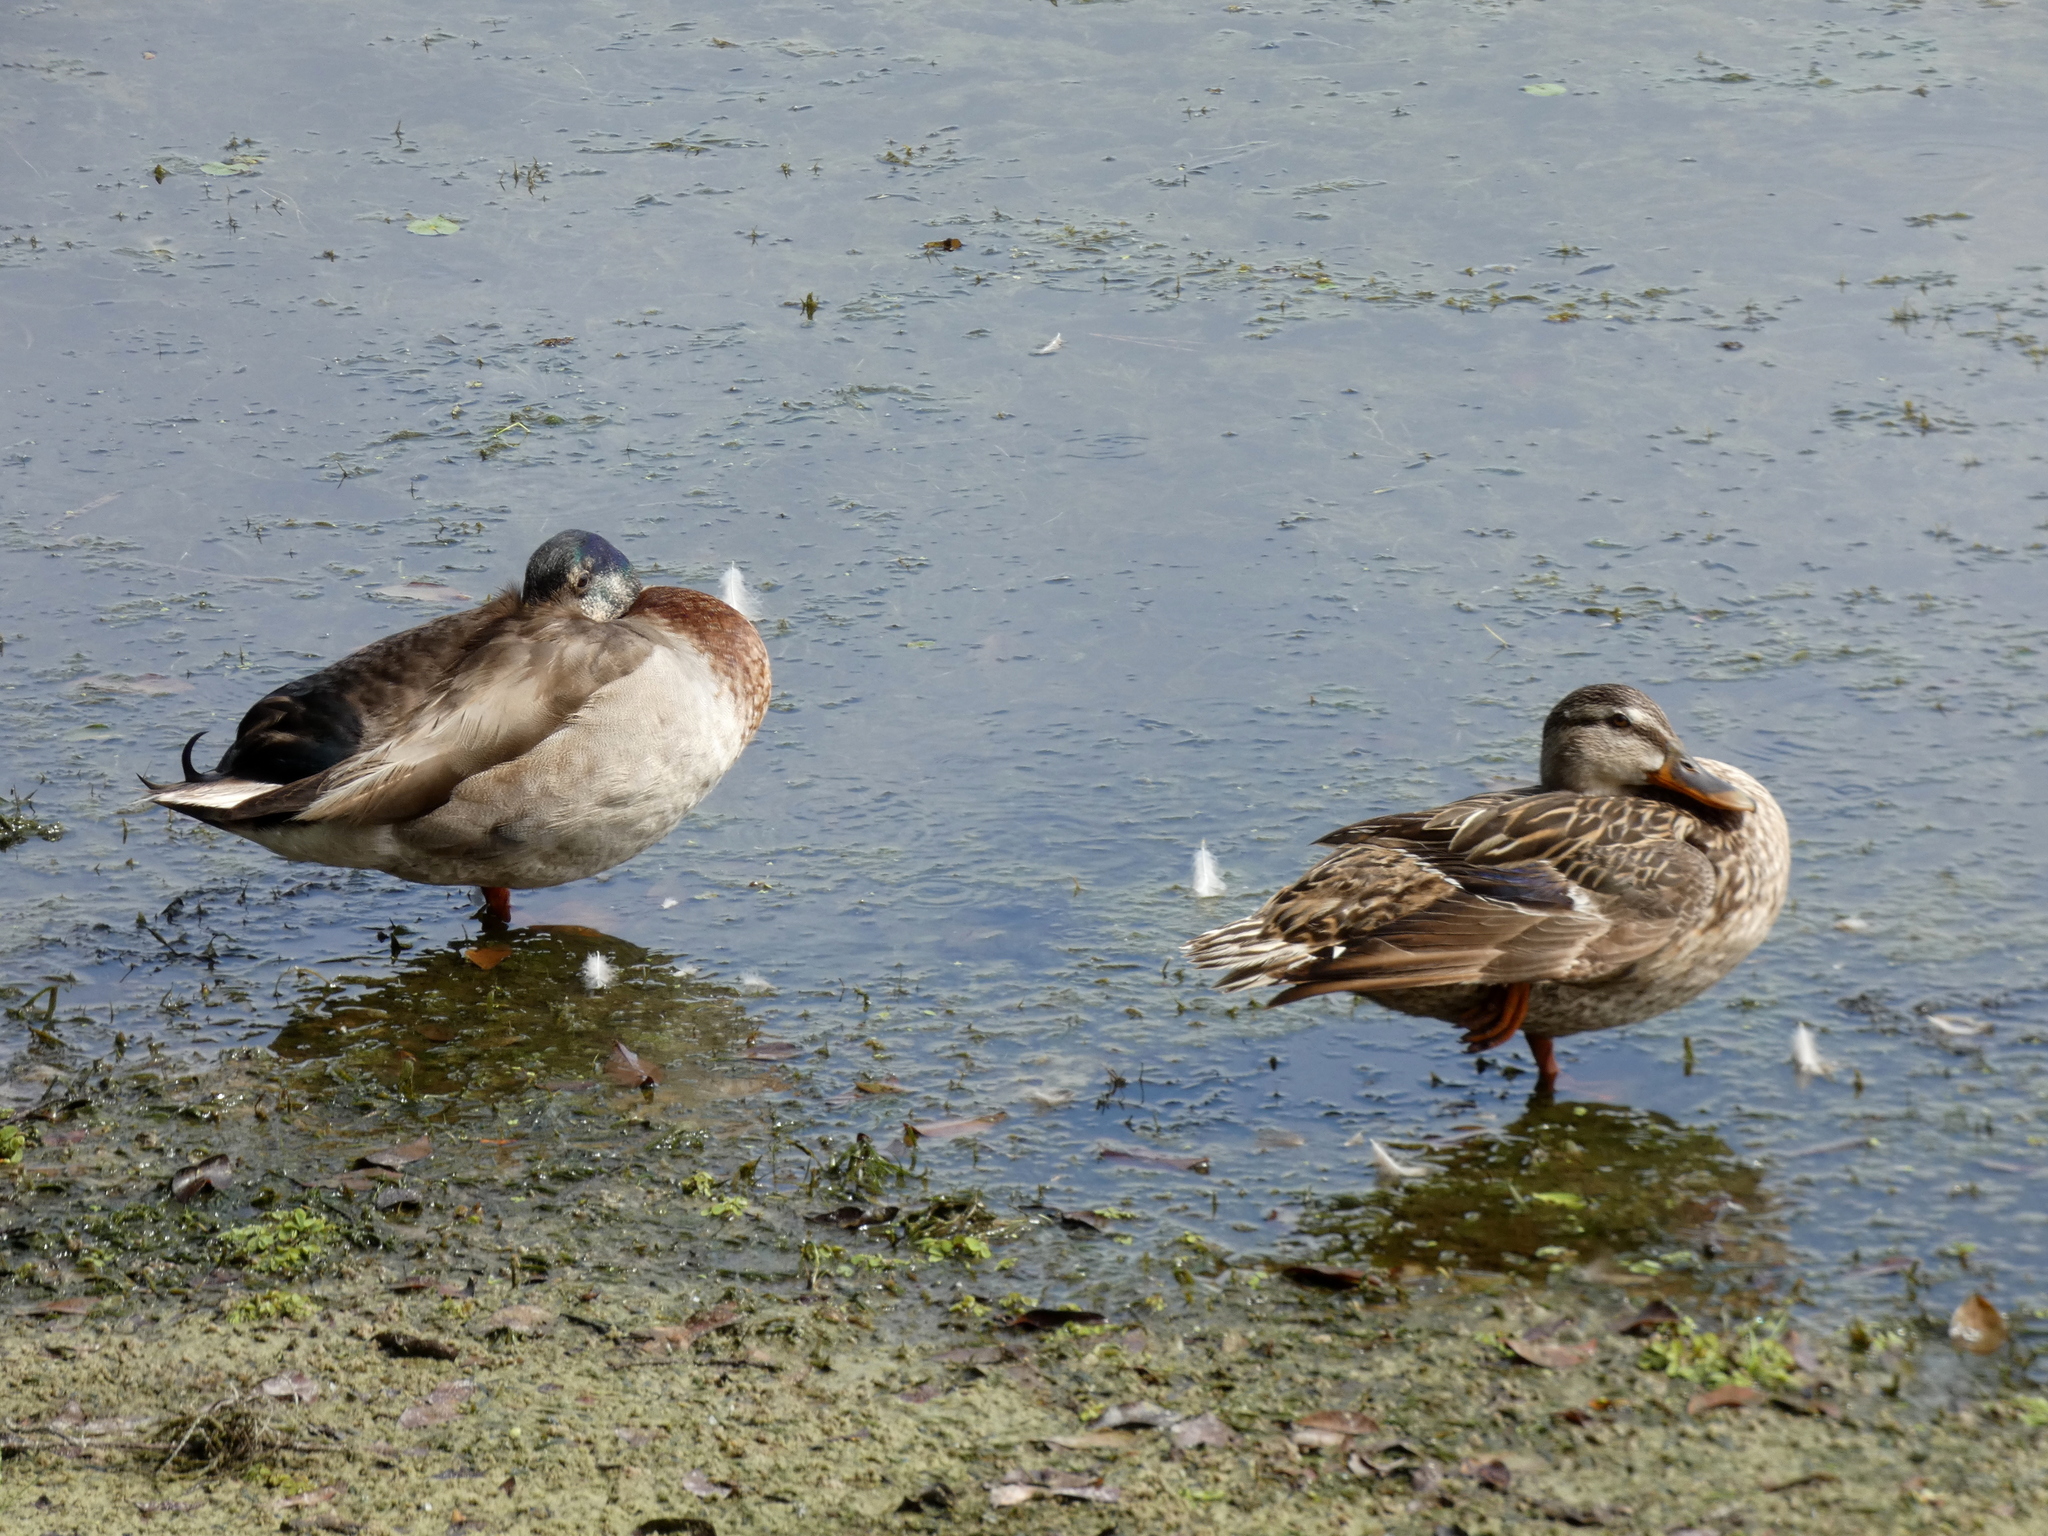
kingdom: Animalia
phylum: Chordata
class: Aves
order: Anseriformes
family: Anatidae
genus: Anas
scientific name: Anas platyrhynchos
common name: Mallard
